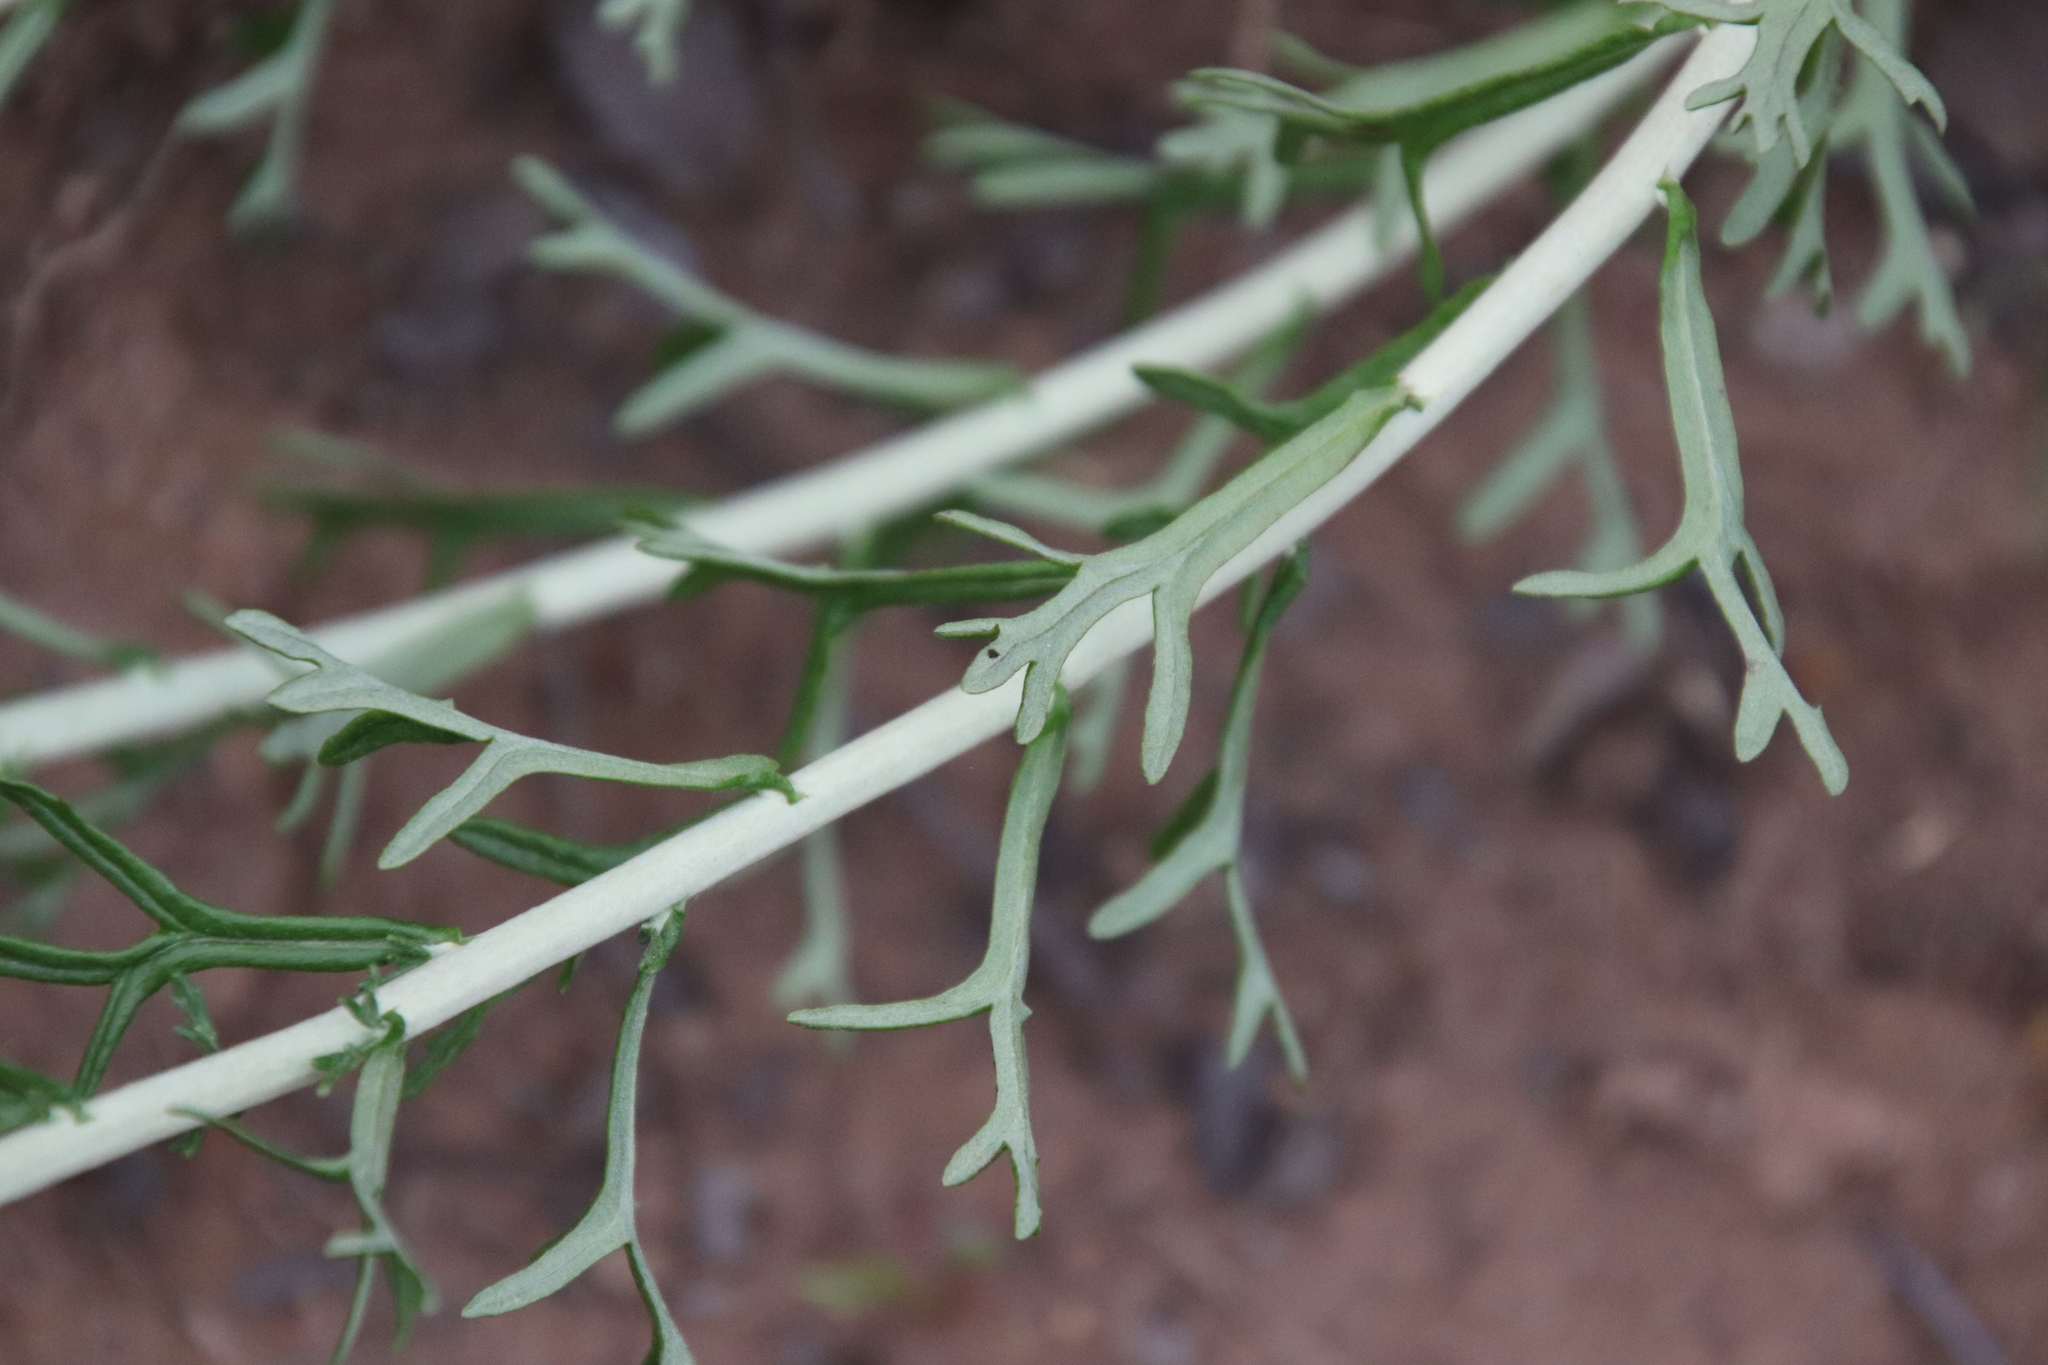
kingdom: Plantae
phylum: Tracheophyta
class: Magnoliopsida
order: Asterales
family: Asteraceae
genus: Eriophyllum
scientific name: Eriophyllum confertiflorum
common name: Golden-yarrow
